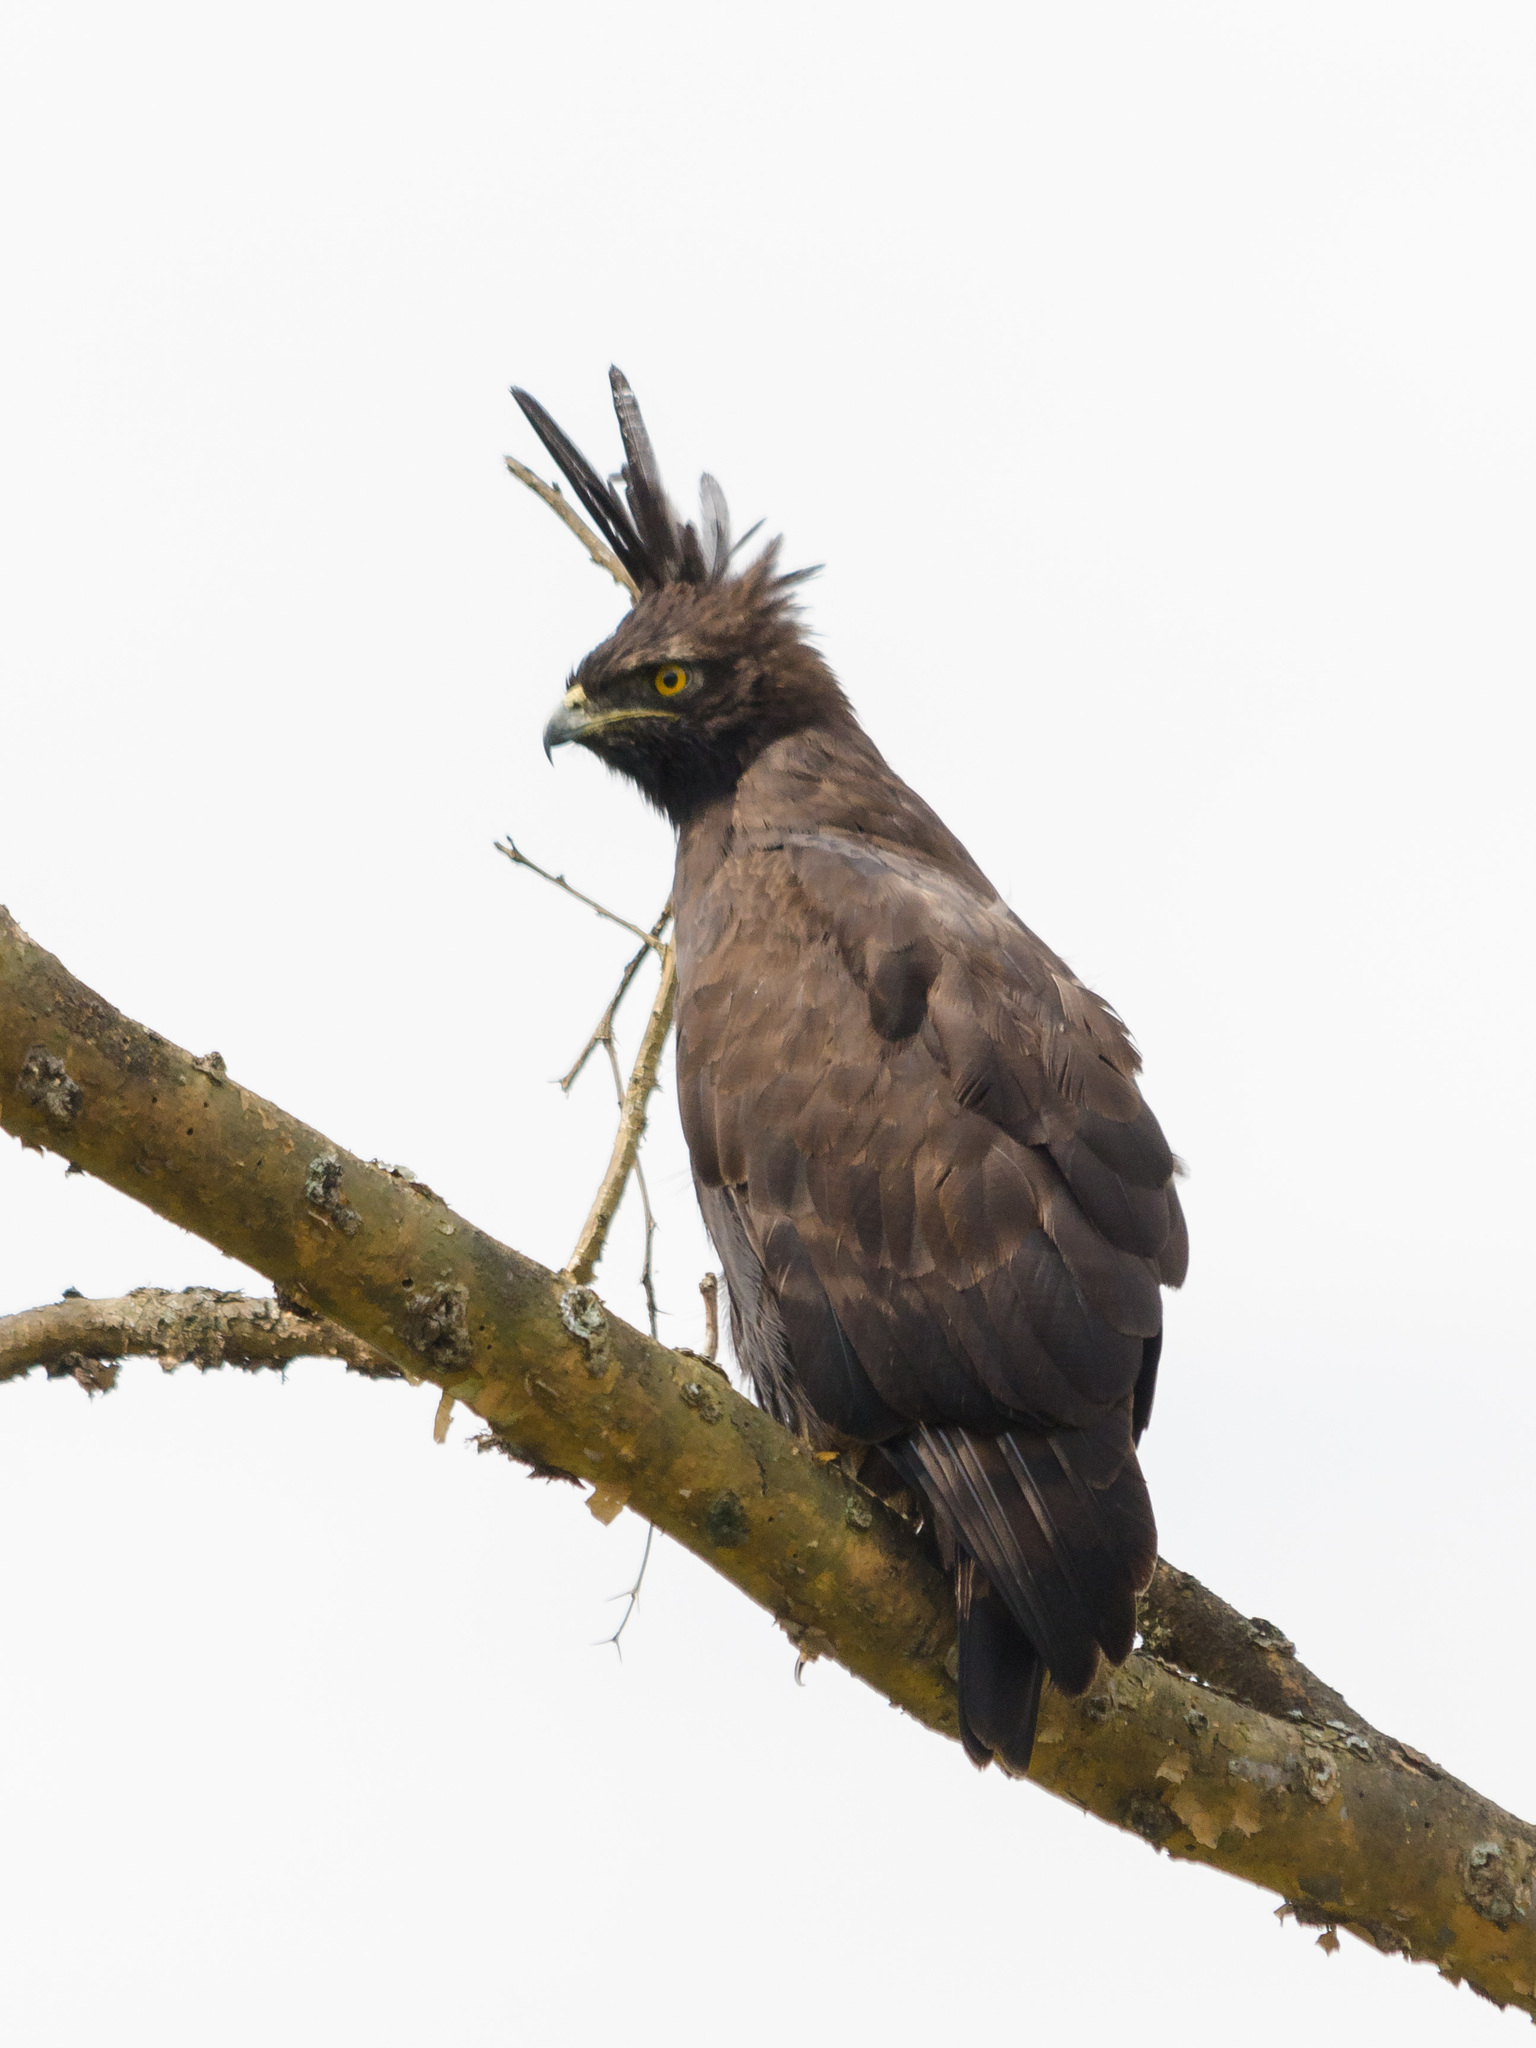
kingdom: Animalia
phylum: Chordata
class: Aves
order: Accipitriformes
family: Accipitridae
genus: Lophaetus
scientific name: Lophaetus occipitalis
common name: Long-crested eagle
